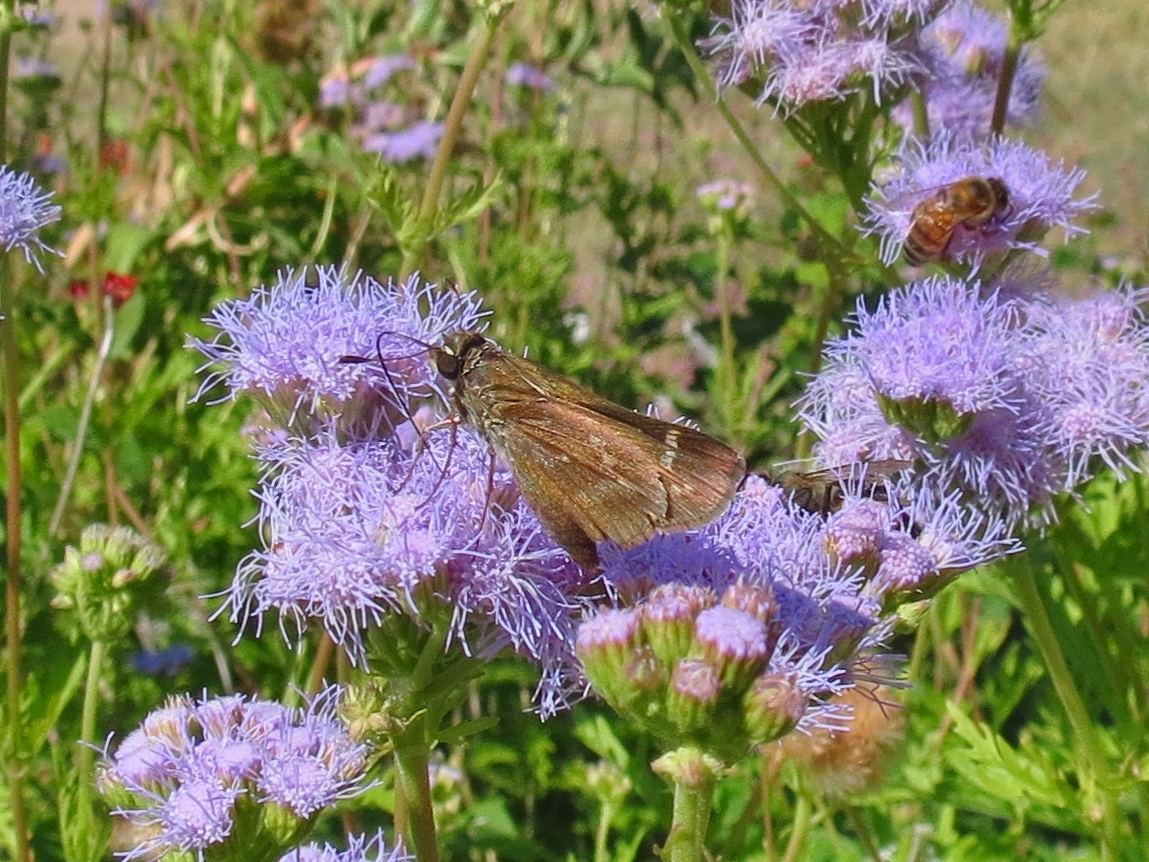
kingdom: Animalia
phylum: Arthropoda
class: Insecta
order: Lepidoptera
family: Hesperiidae
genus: Atalopedes
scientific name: Atalopedes
